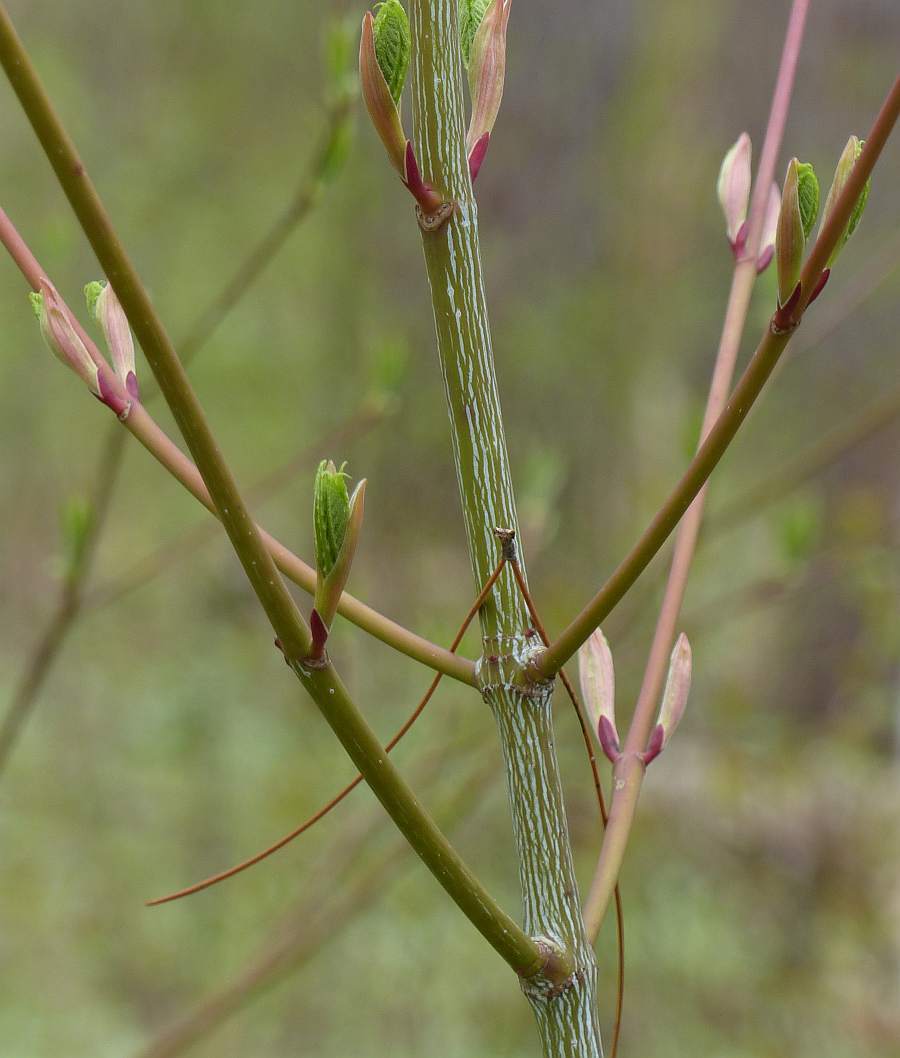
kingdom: Plantae
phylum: Tracheophyta
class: Magnoliopsida
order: Sapindales
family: Sapindaceae
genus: Acer
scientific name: Acer pensylvanicum
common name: Moosewood
